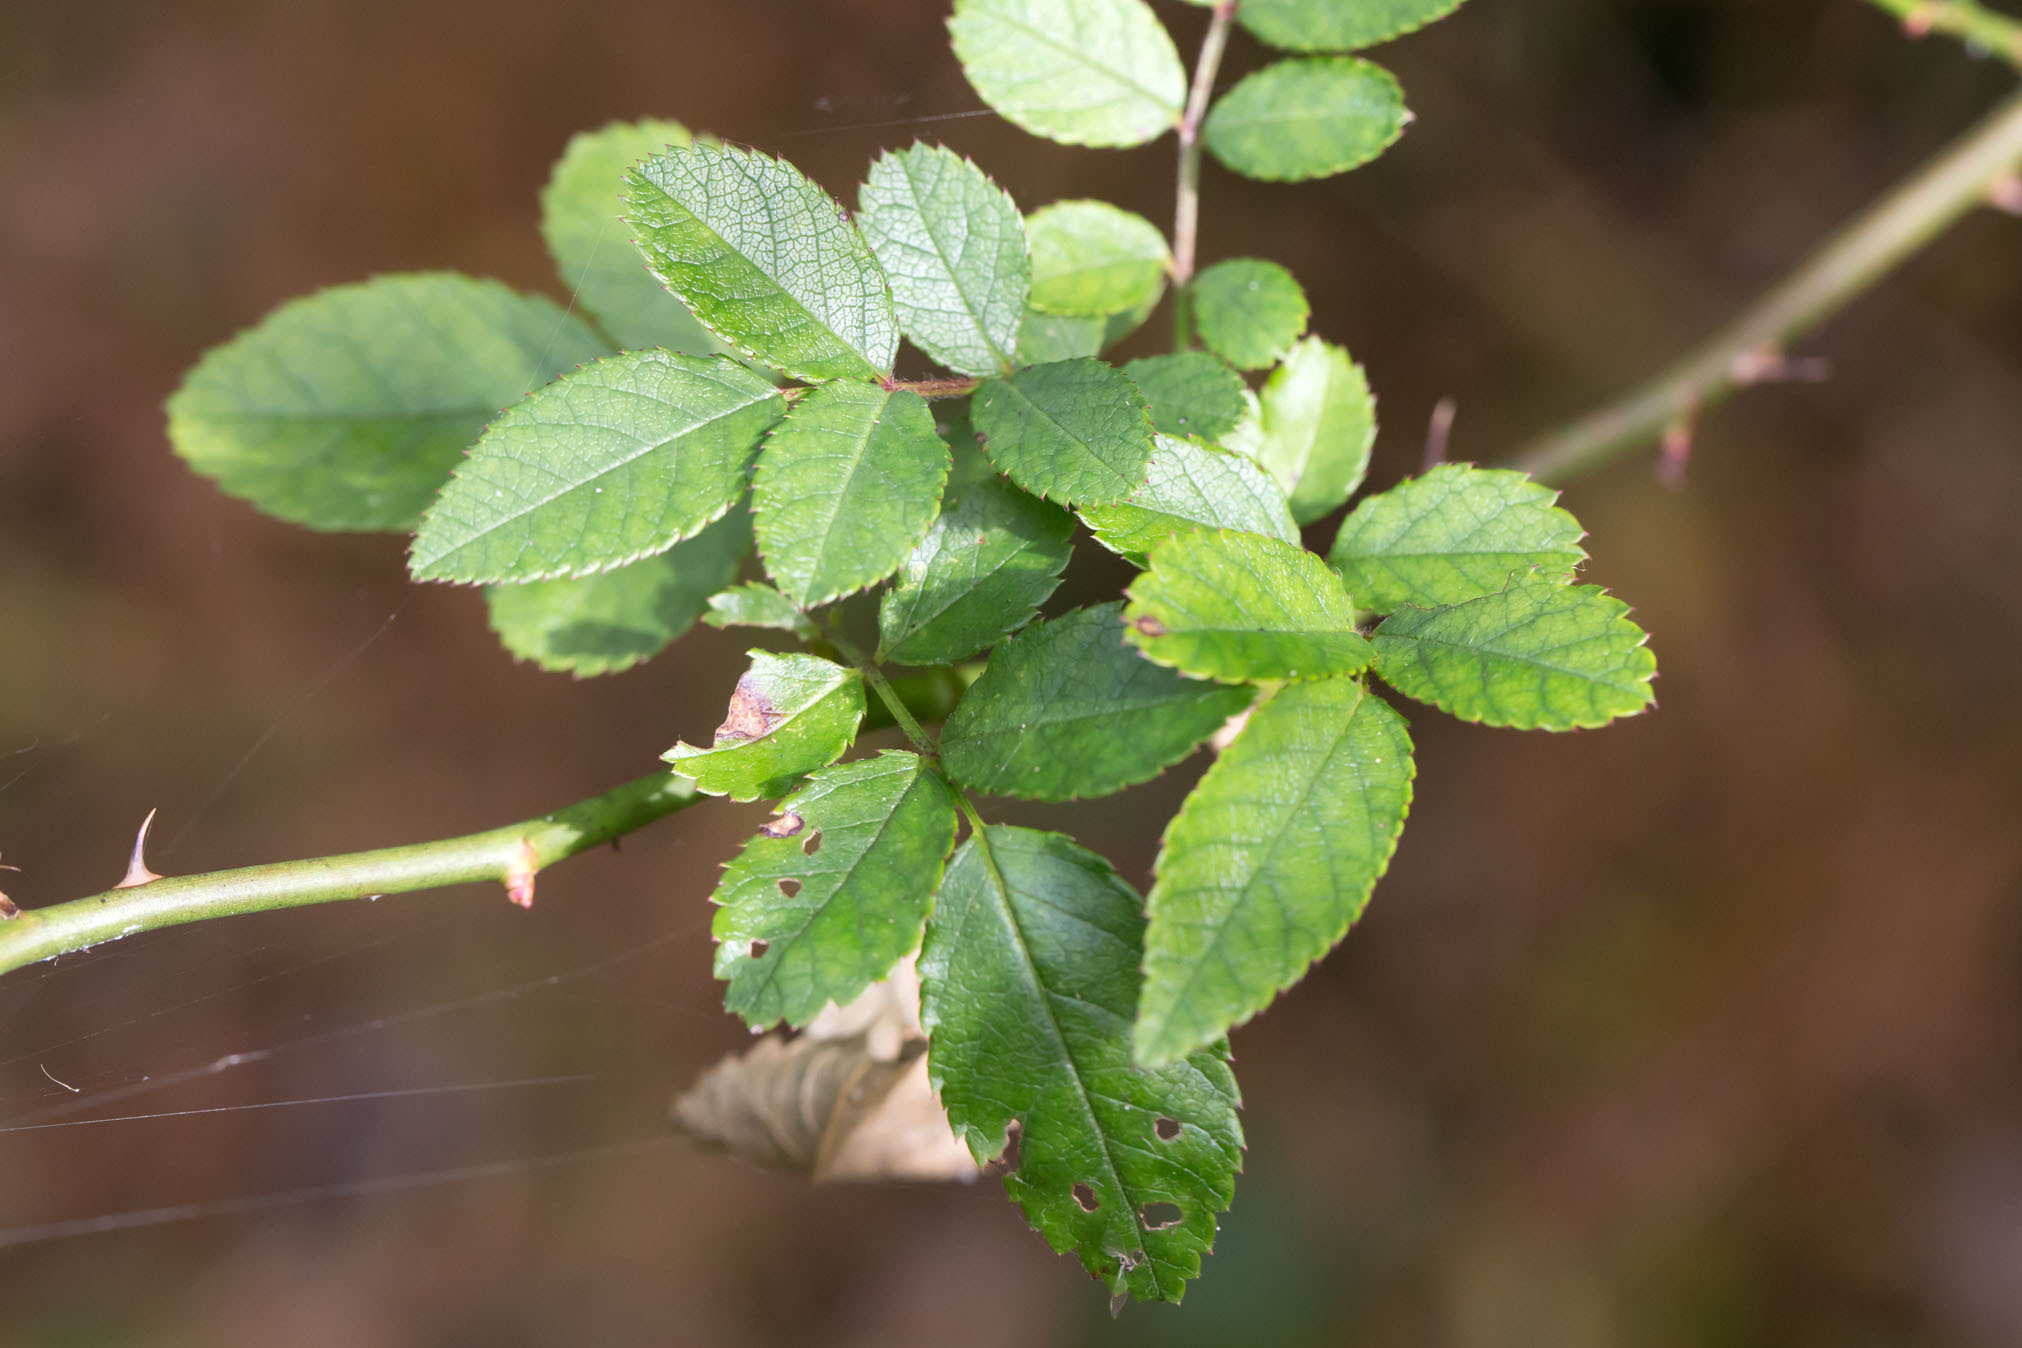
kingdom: Plantae
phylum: Tracheophyta
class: Magnoliopsida
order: Rosales
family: Rosaceae
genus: Rosa
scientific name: Rosa multiflora
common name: Multiflora rose
